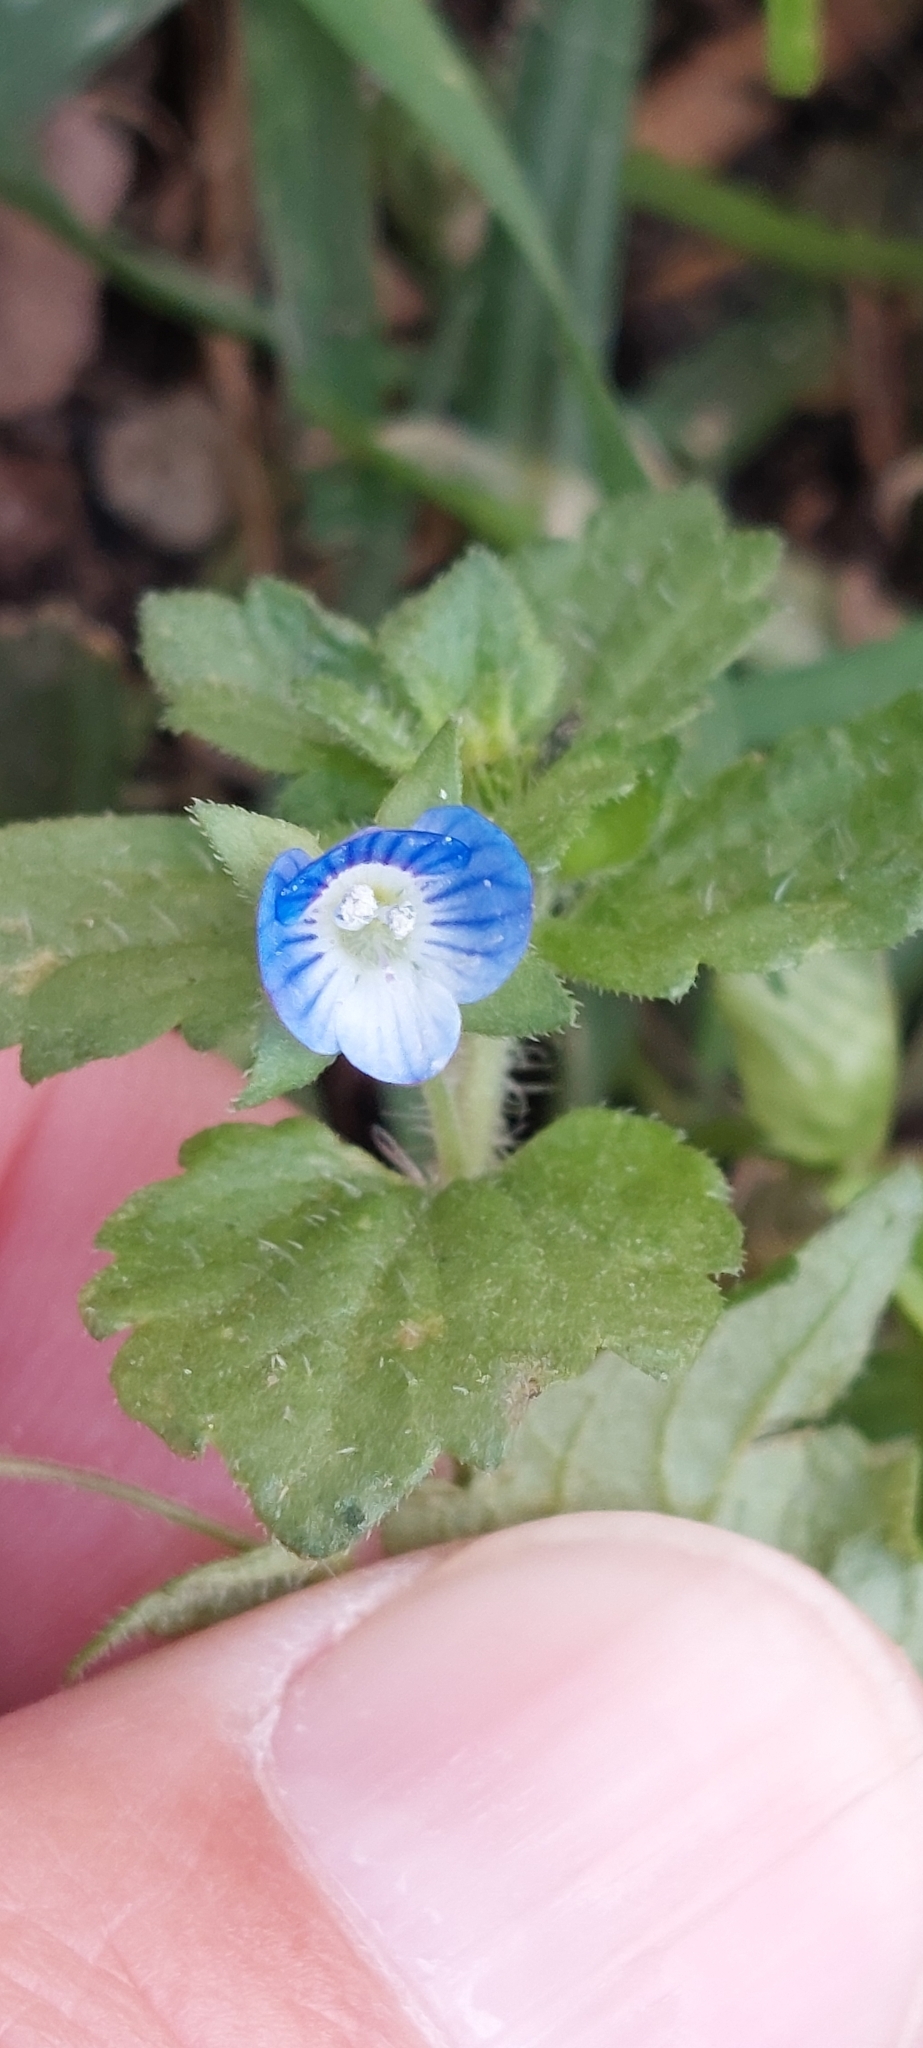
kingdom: Plantae
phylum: Tracheophyta
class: Magnoliopsida
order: Lamiales
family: Plantaginaceae
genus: Veronica
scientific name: Veronica persica
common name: Common field-speedwell
